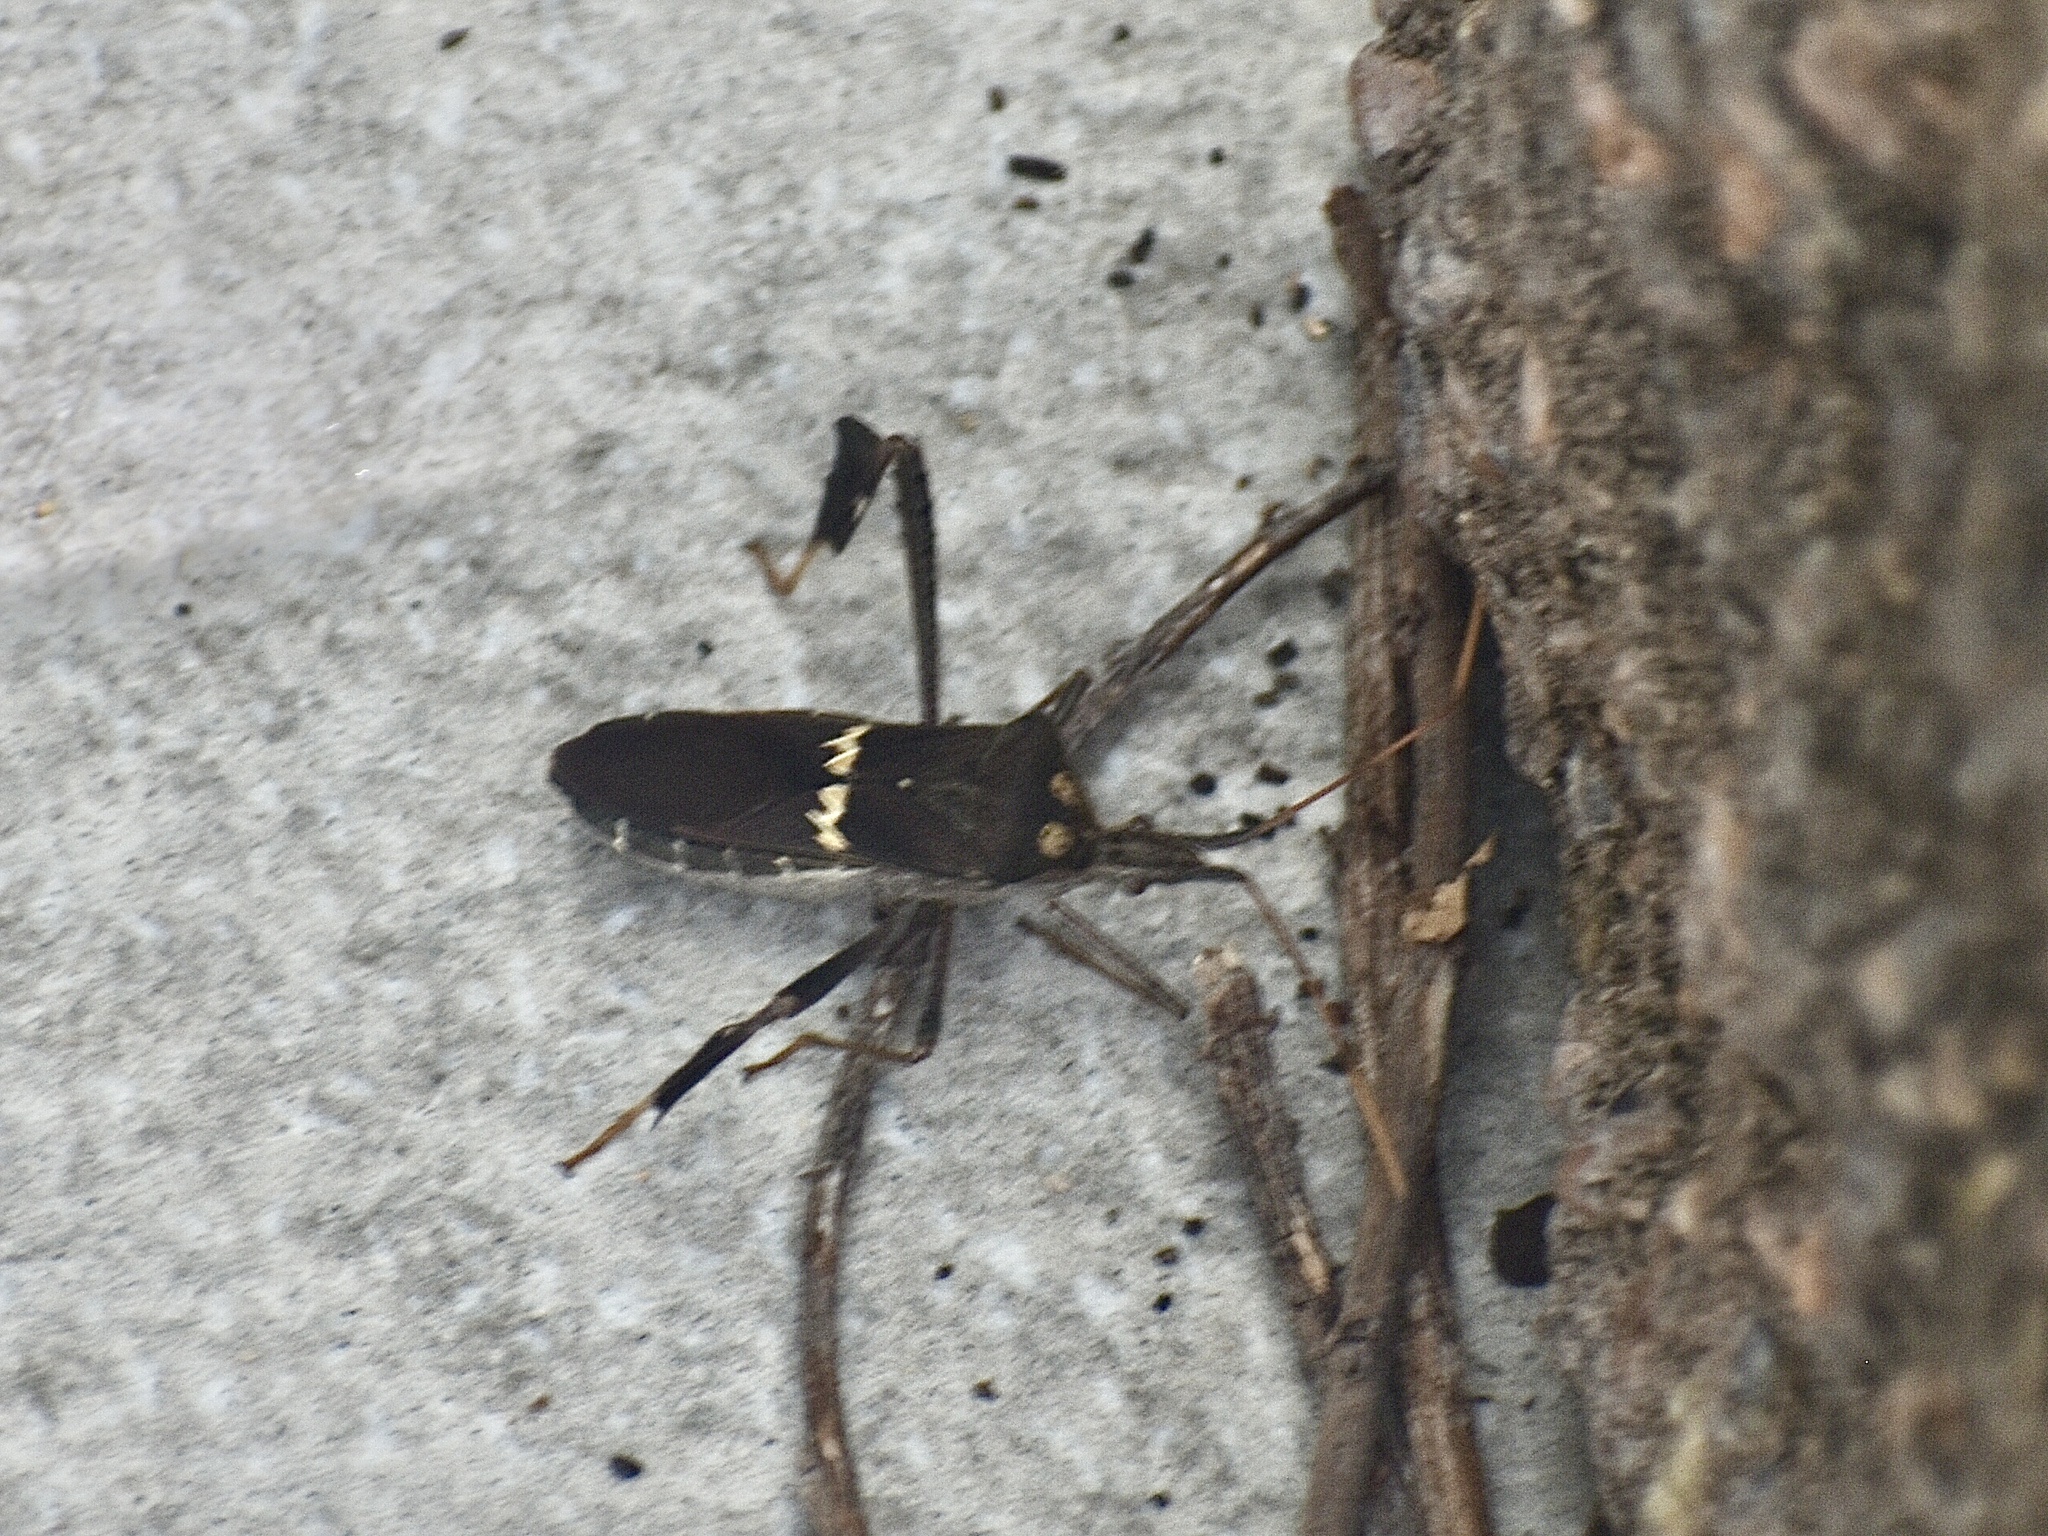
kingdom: Animalia
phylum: Arthropoda
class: Insecta
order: Hemiptera
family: Coreidae
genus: Leptoglossus
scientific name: Leptoglossus zonatus
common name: Large-legged bug
